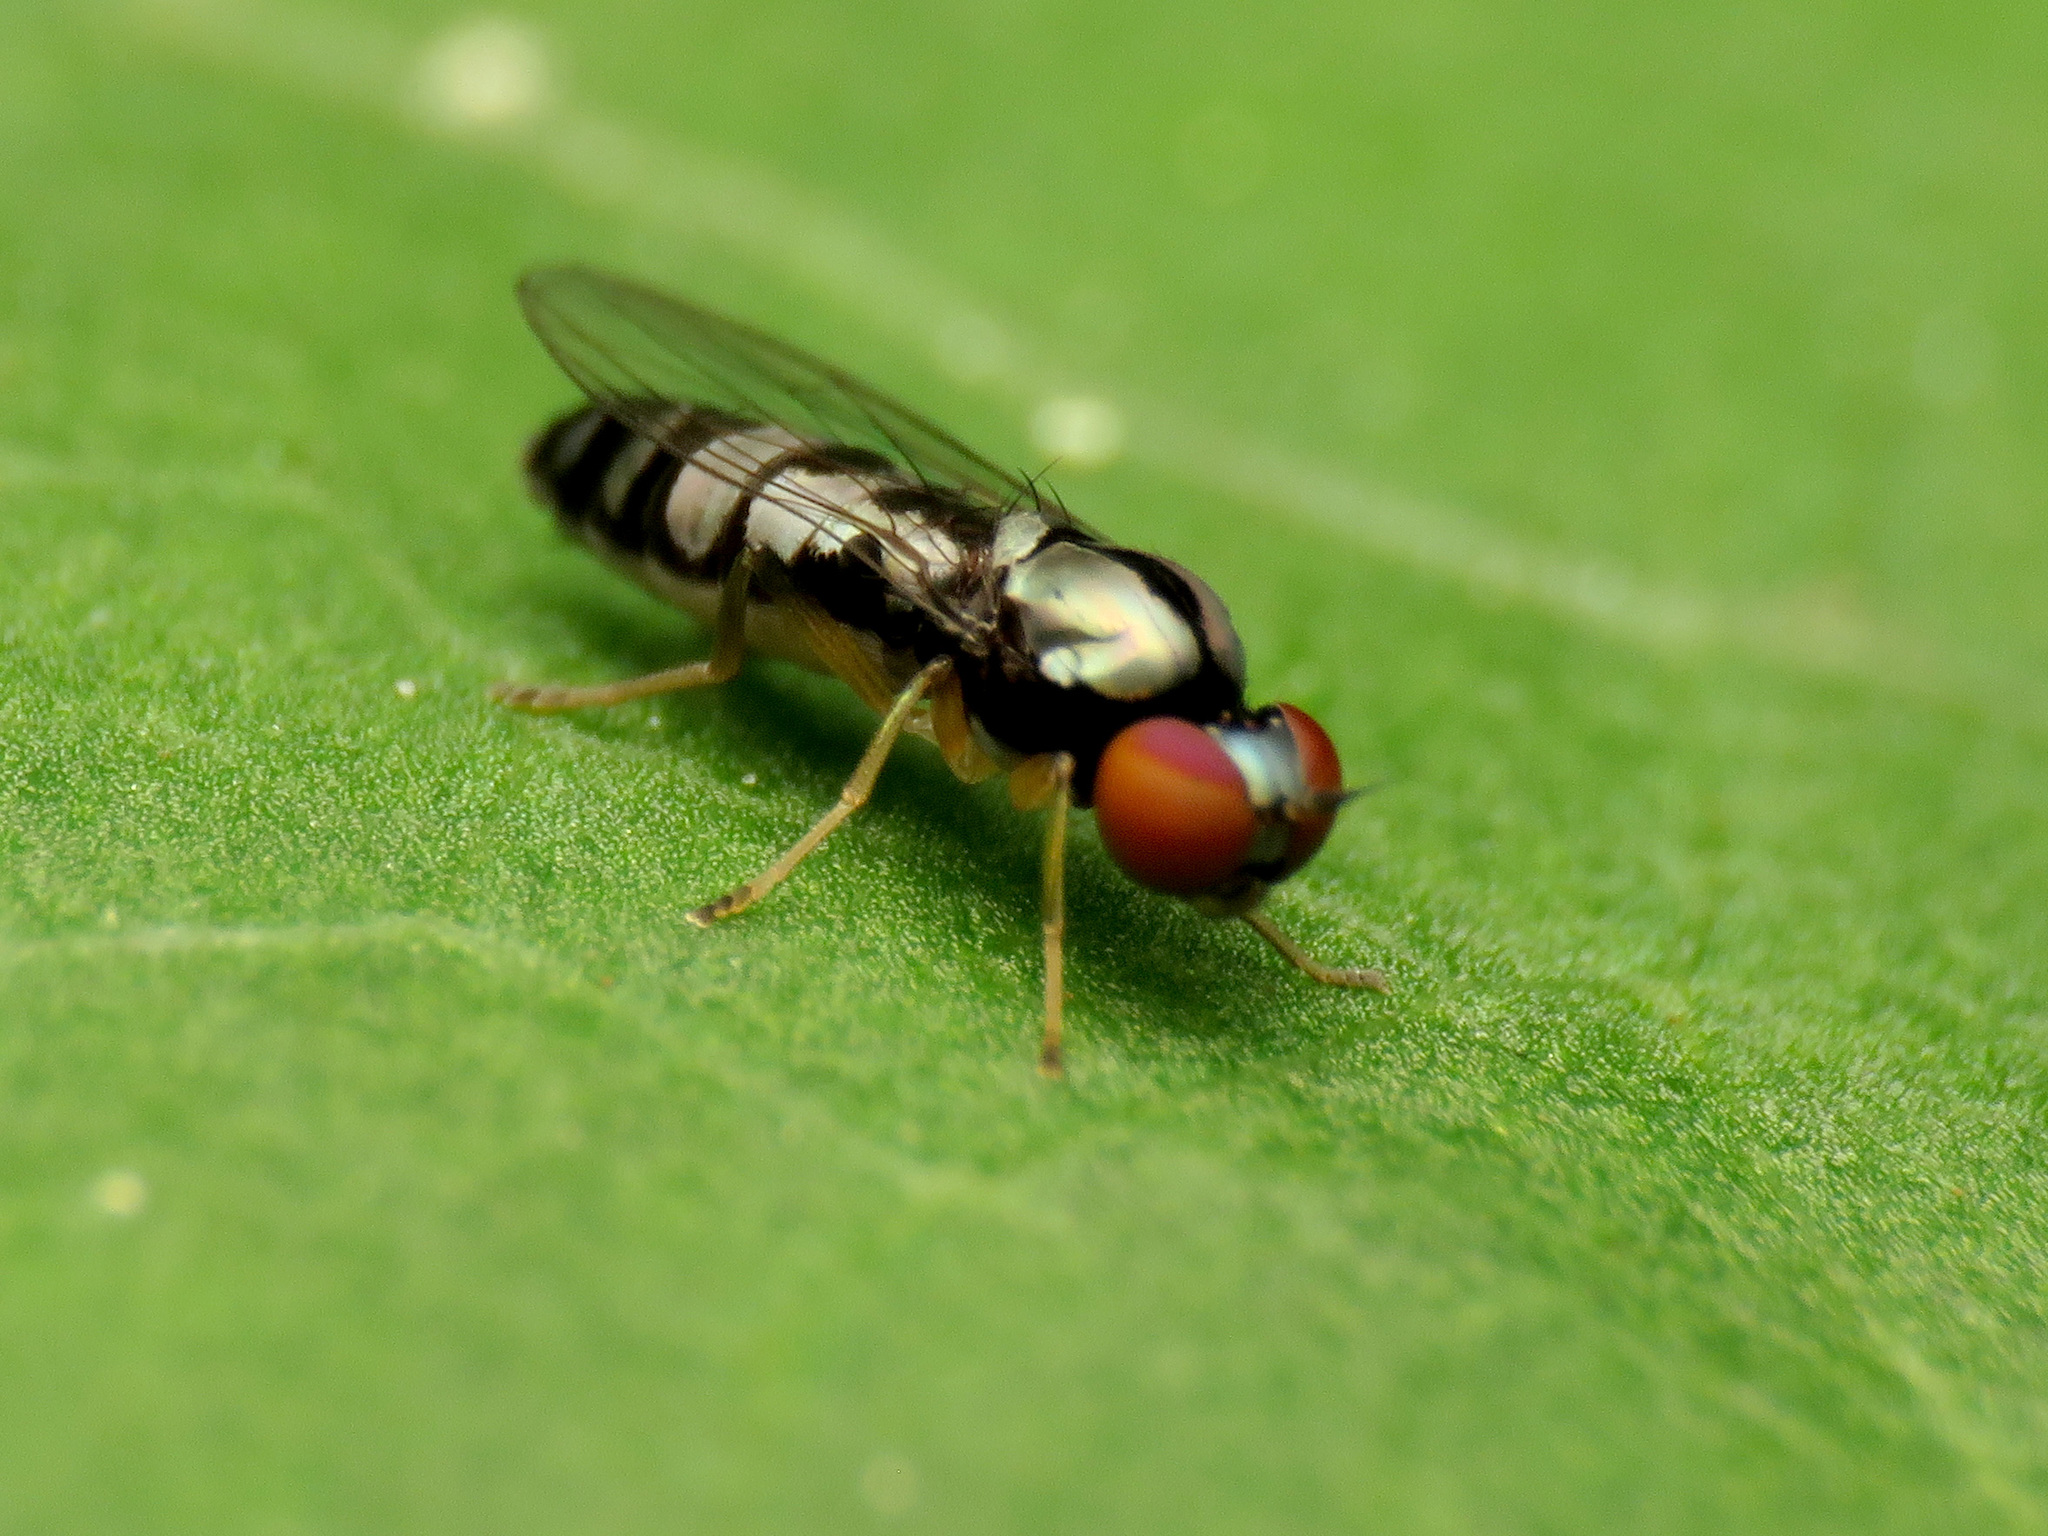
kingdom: Animalia
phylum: Arthropoda
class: Insecta
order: Diptera
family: Platypezidae
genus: Bertamyia
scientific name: Bertamyia notata
